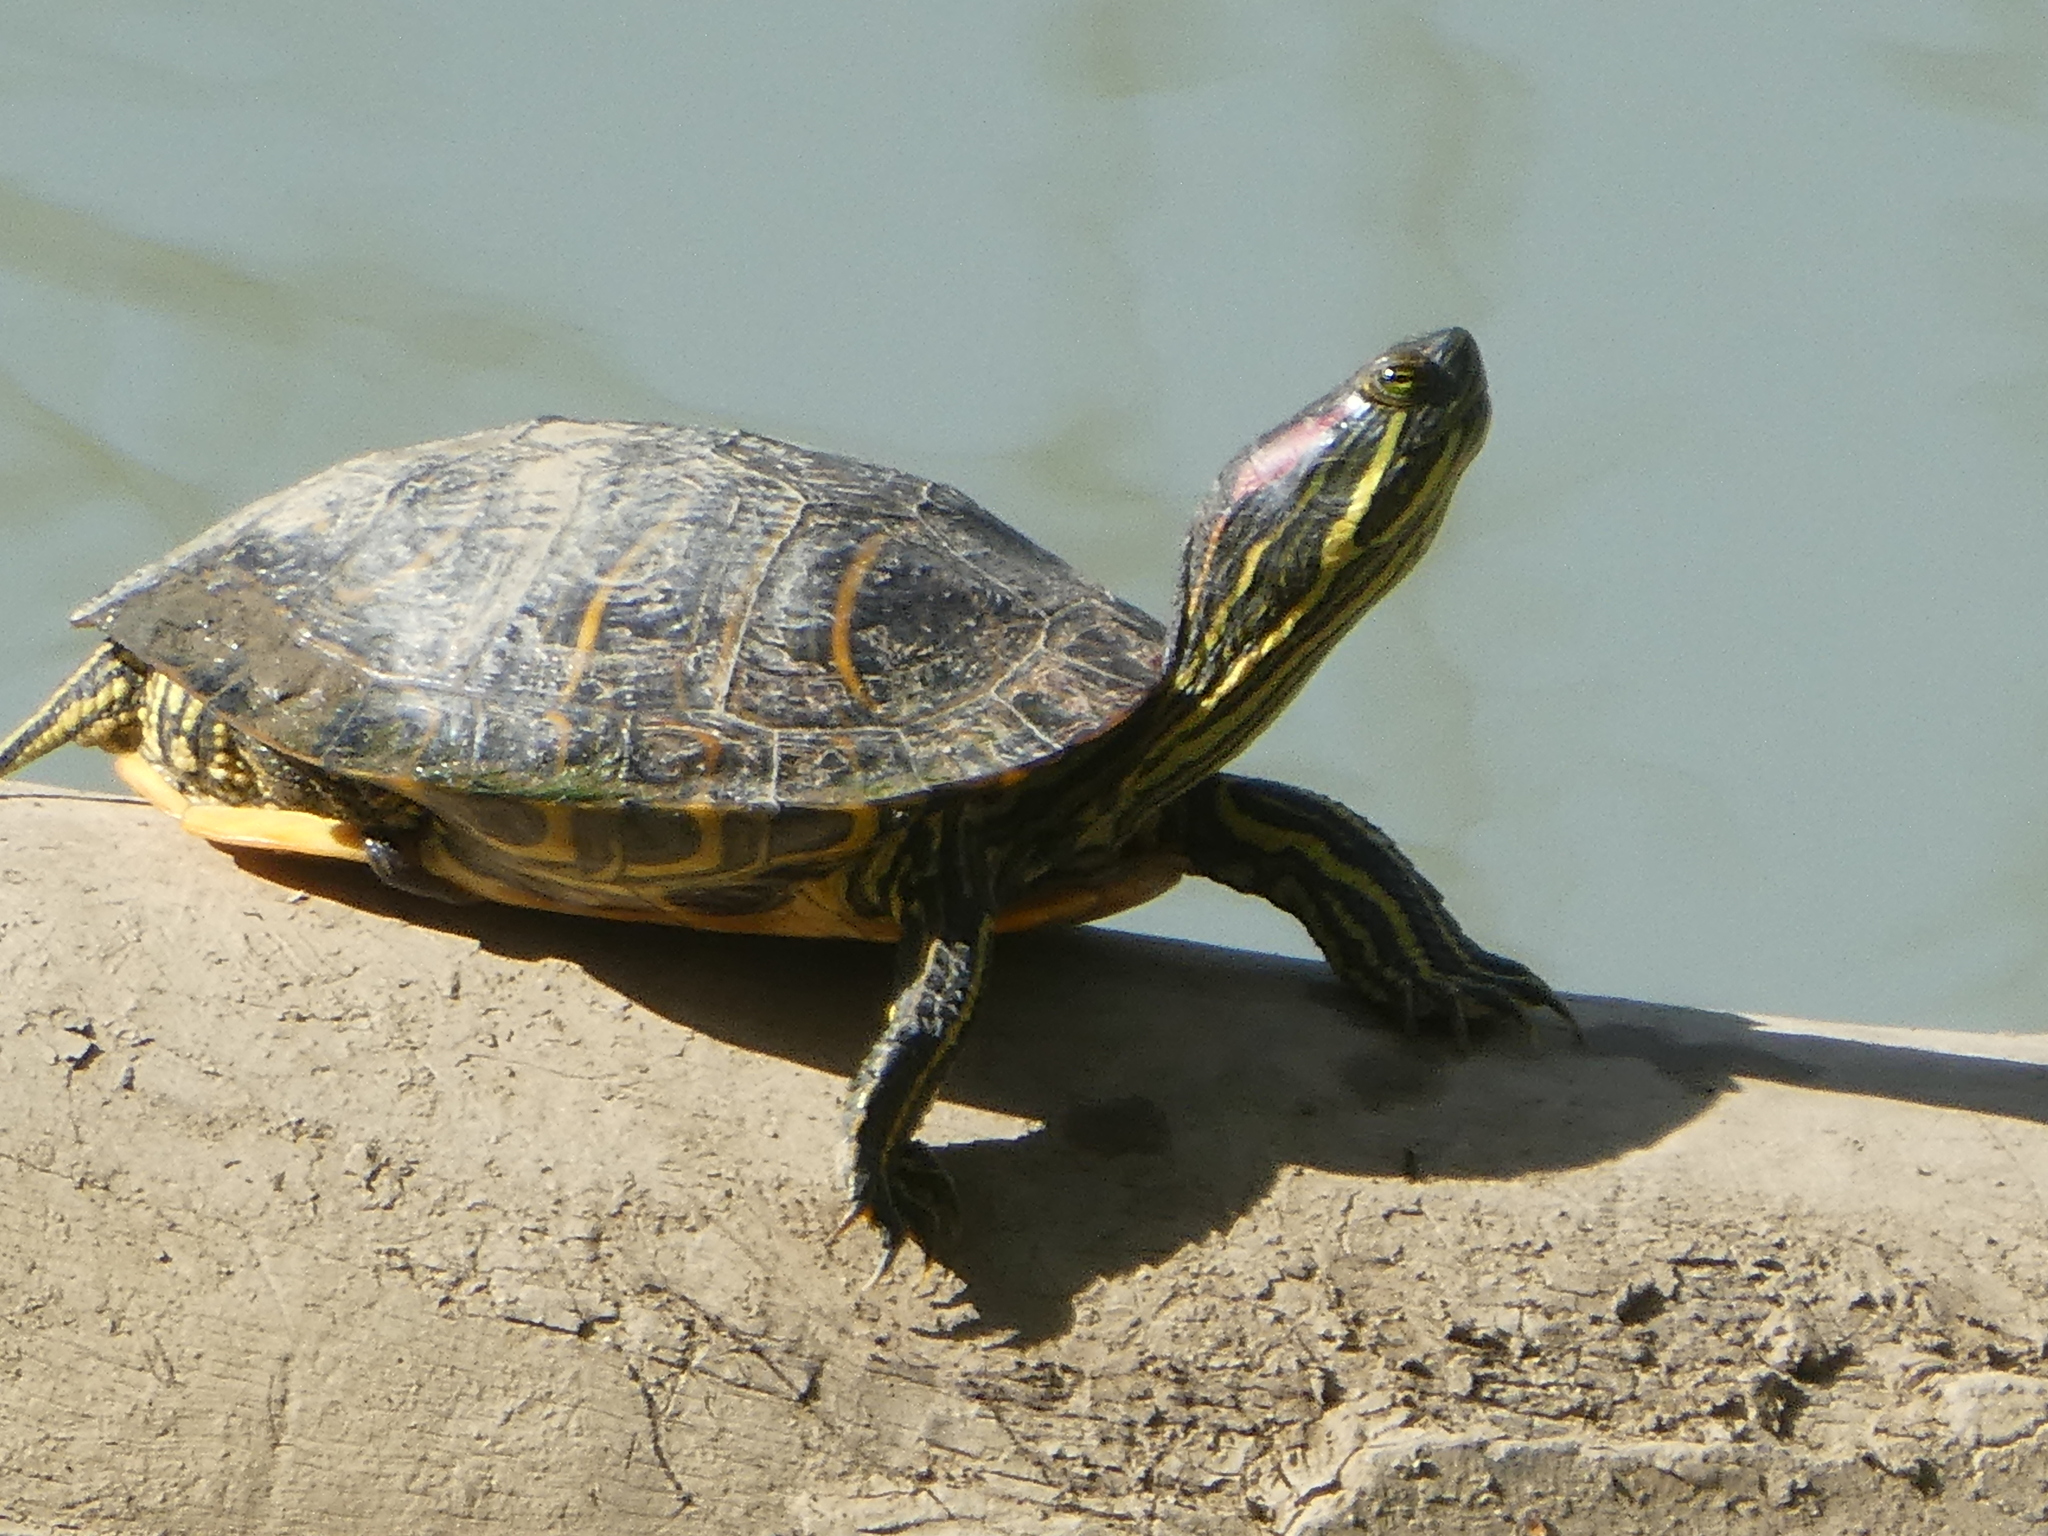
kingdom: Animalia
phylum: Chordata
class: Testudines
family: Emydidae
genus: Trachemys
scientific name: Trachemys scripta
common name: Slider
